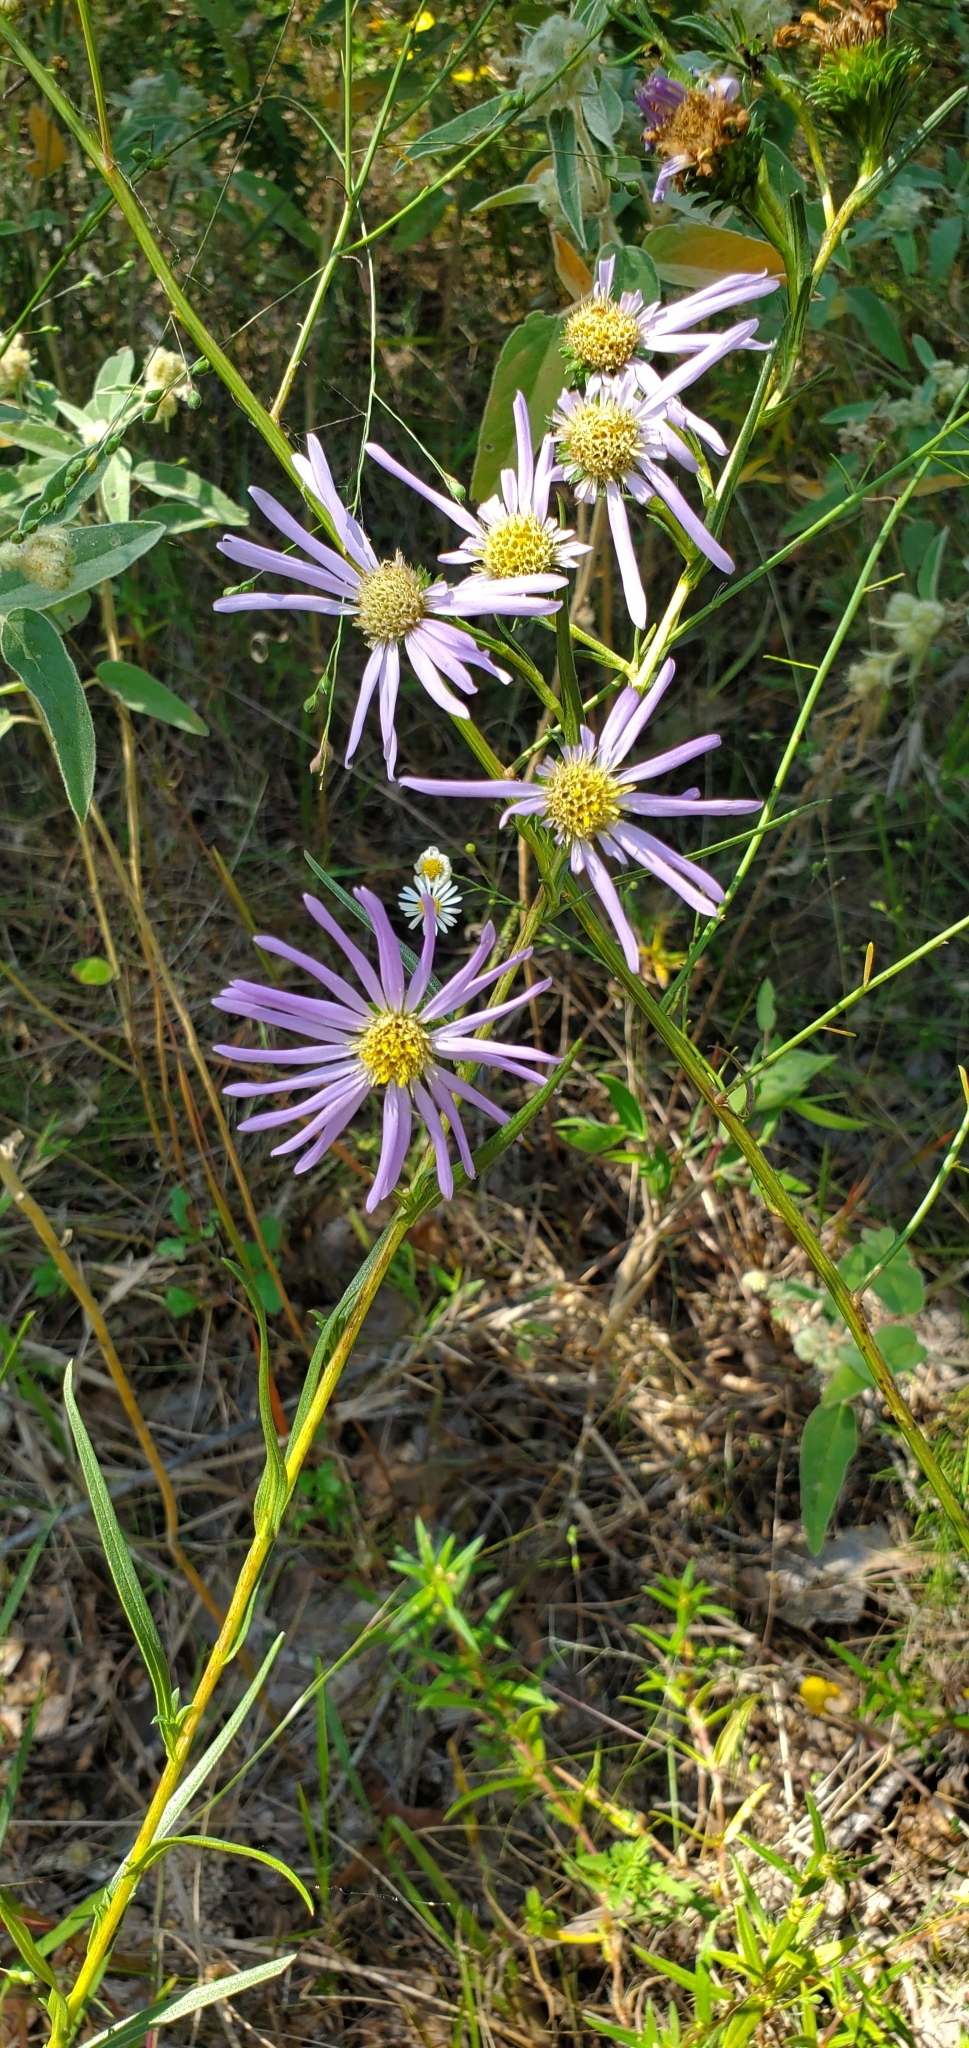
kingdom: Plantae
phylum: Tracheophyta
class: Magnoliopsida
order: Asterales
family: Asteraceae
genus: Eurybia
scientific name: Eurybia hemispherica
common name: Showy aster
